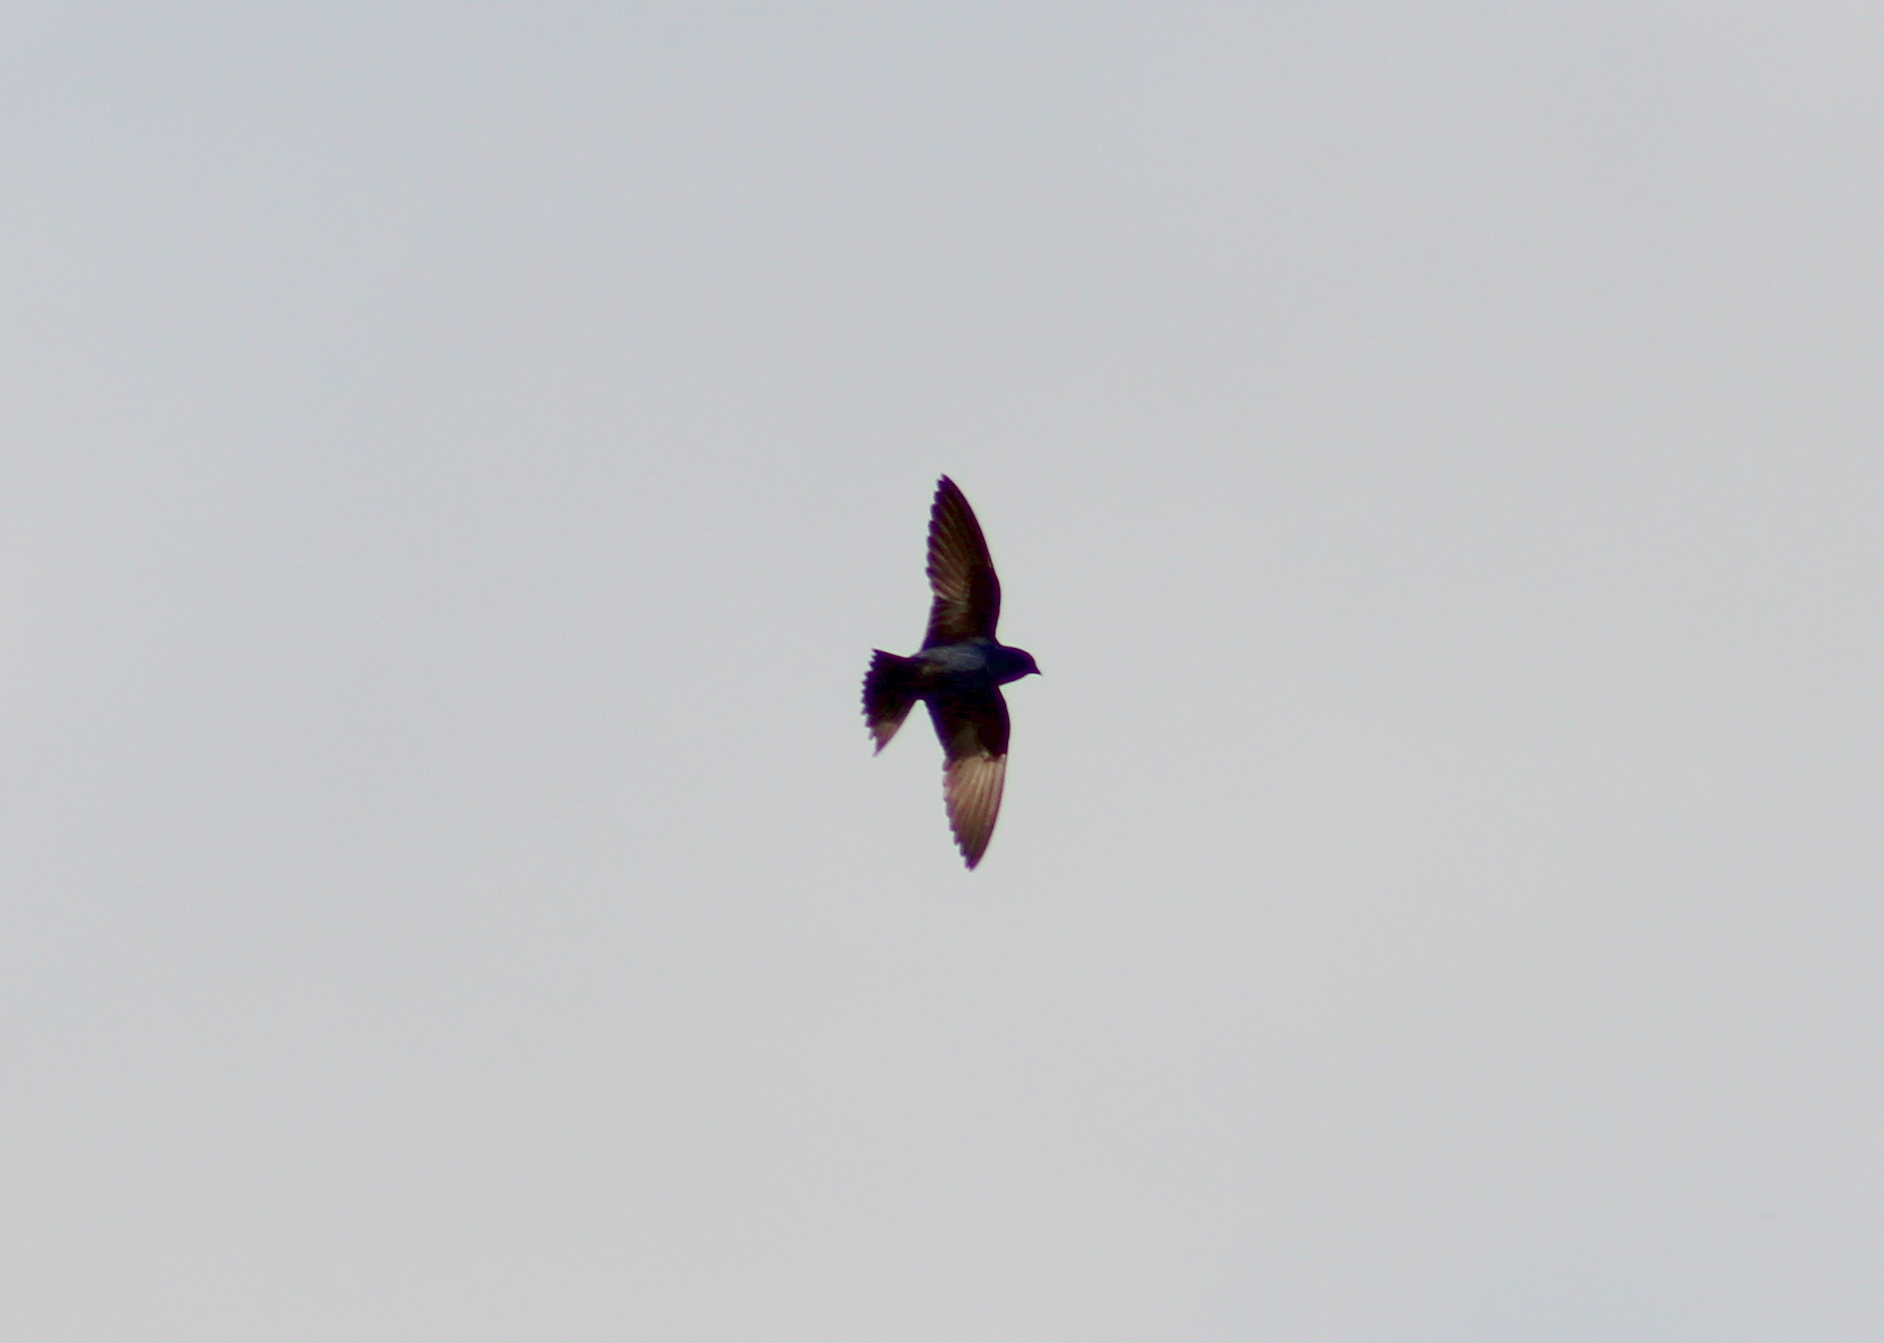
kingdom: Animalia
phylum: Chordata
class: Aves
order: Passeriformes
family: Hirundinidae
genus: Progne
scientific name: Progne subis
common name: Purple martin
